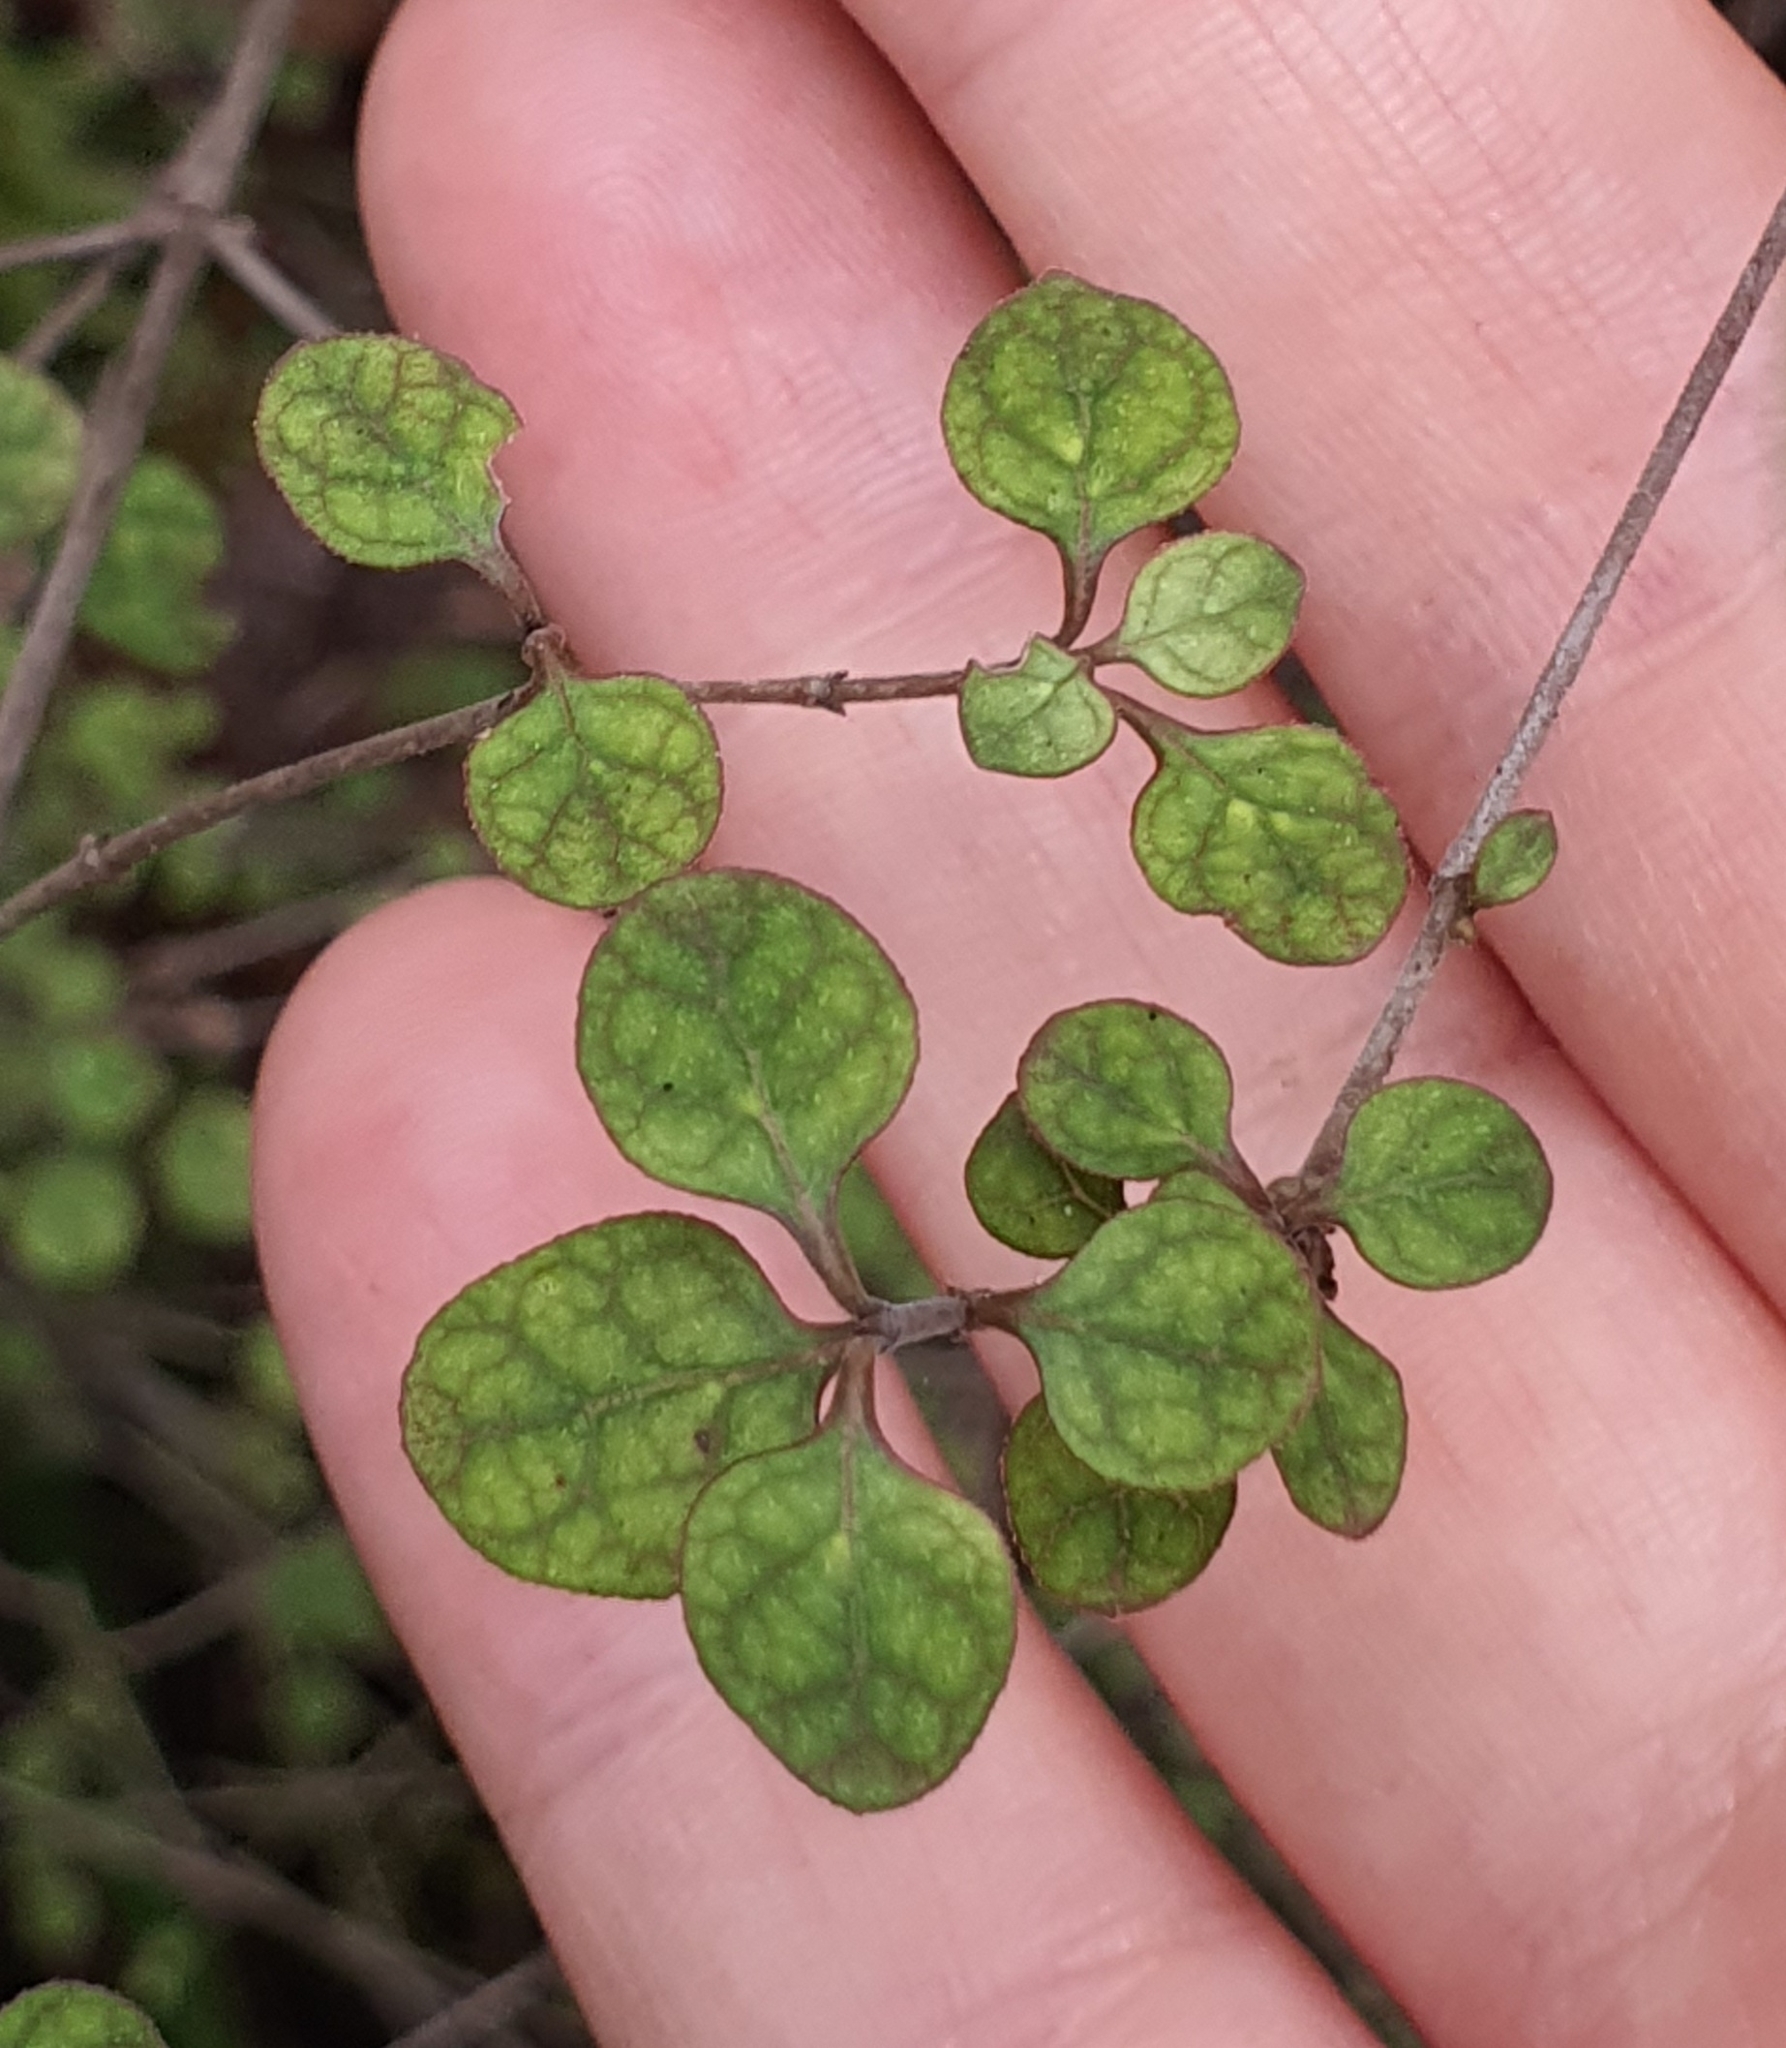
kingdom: Plantae
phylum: Tracheophyta
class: Magnoliopsida
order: Gentianales
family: Rubiaceae
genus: Coprosma
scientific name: Coprosma tenuicaulis
